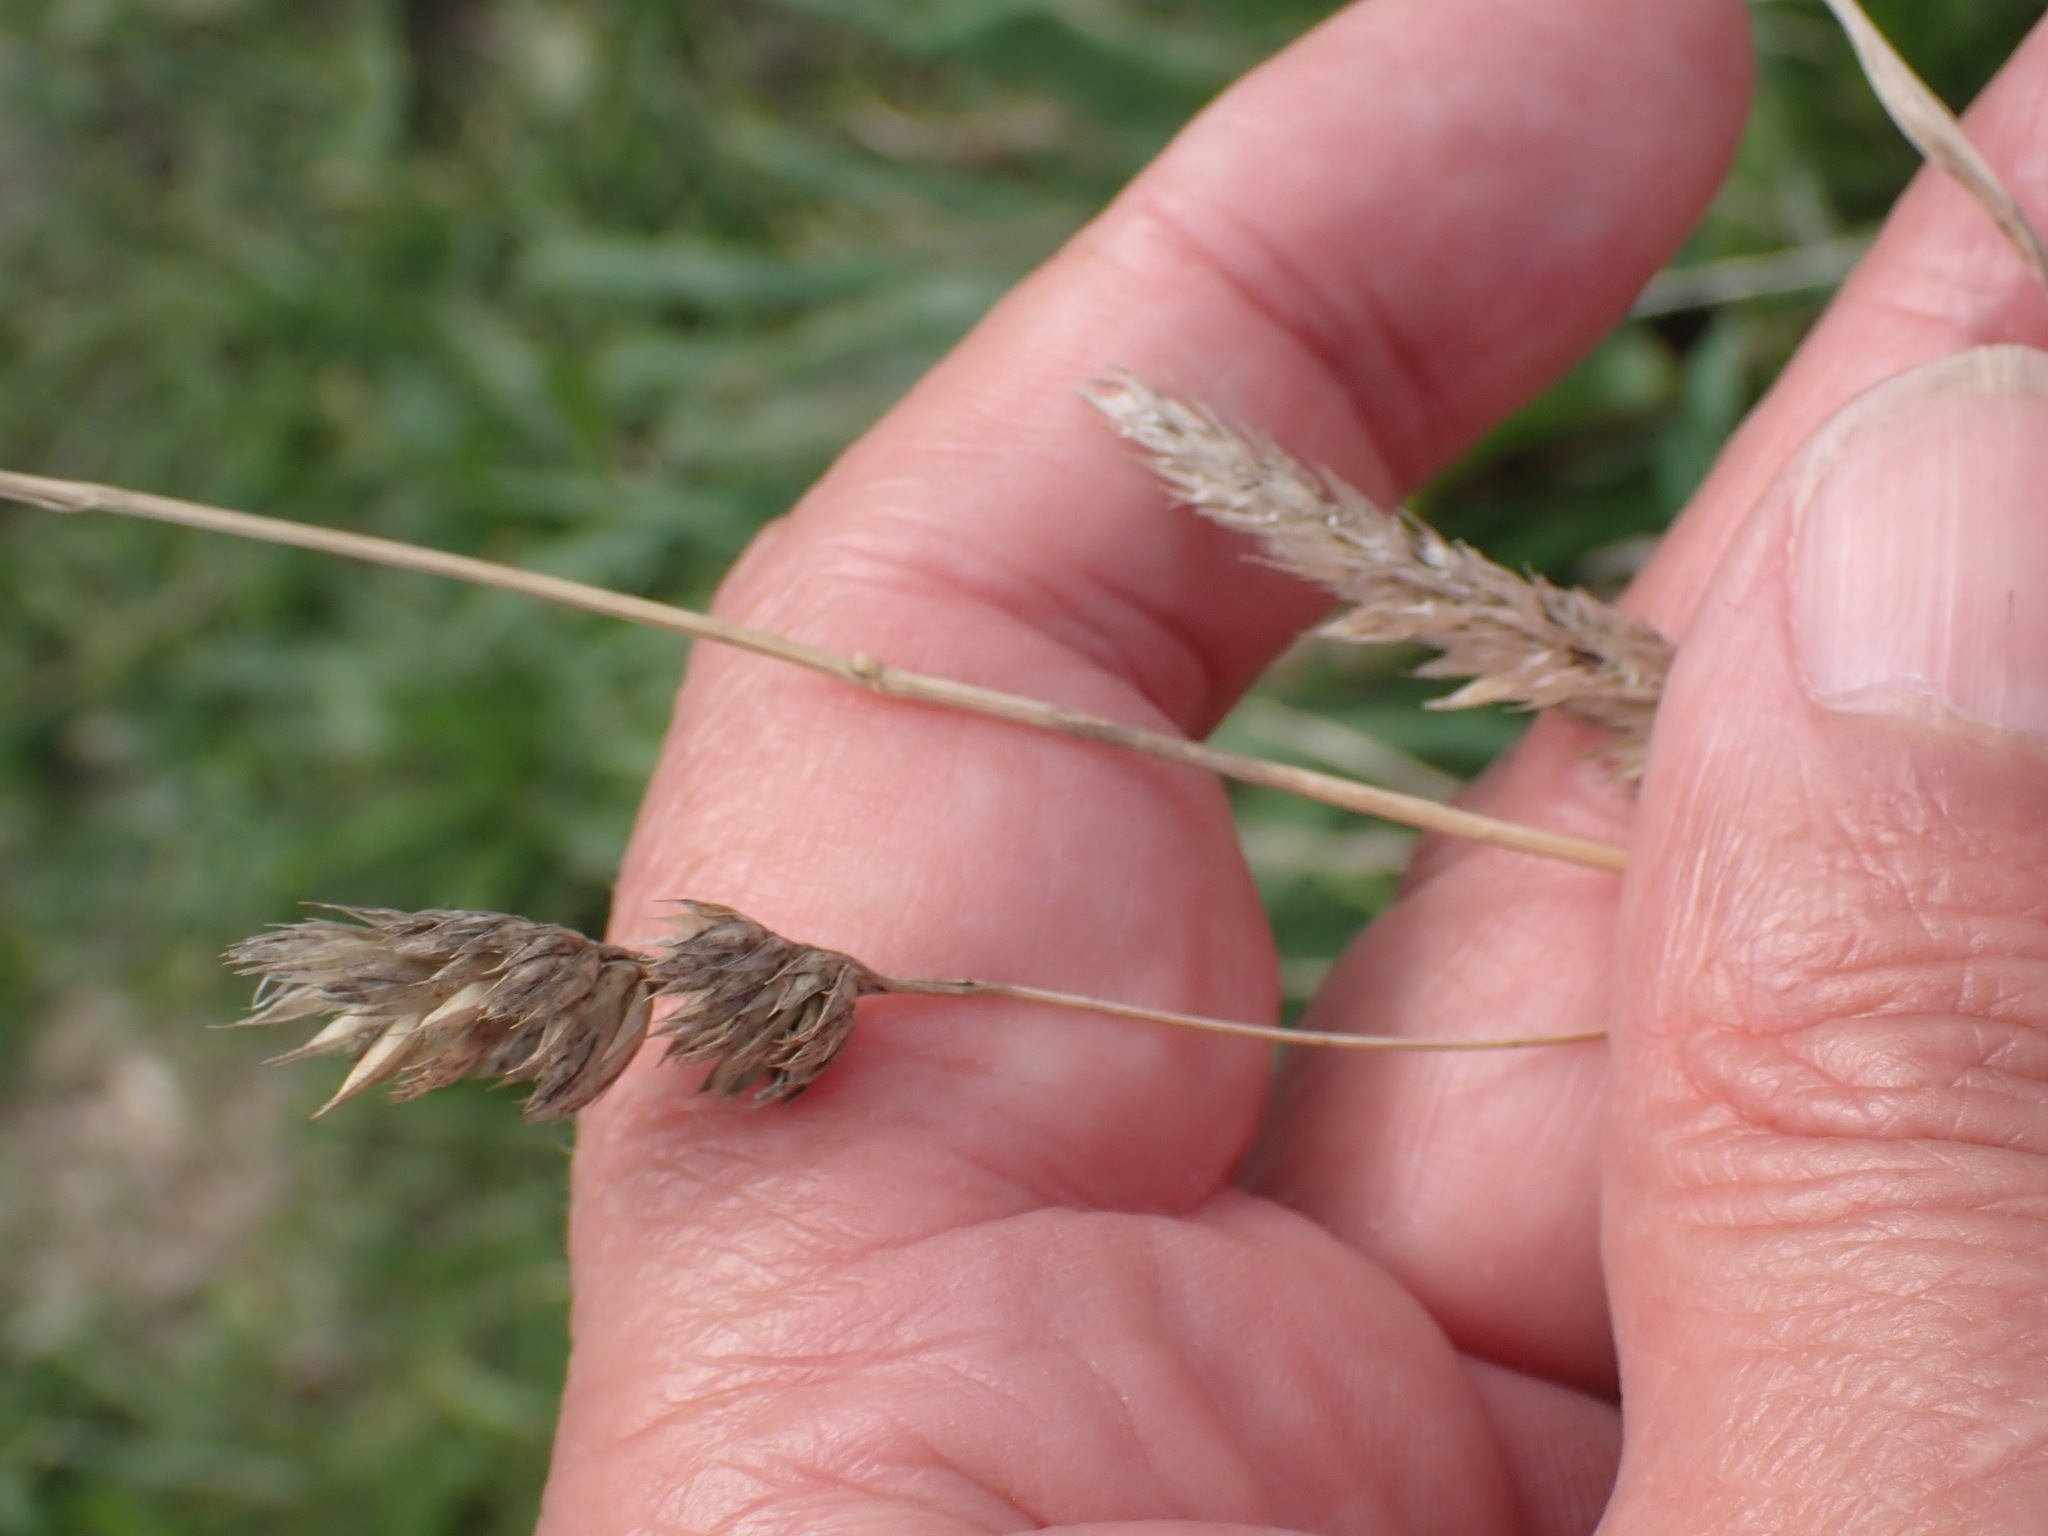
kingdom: Plantae
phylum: Tracheophyta
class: Liliopsida
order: Poales
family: Poaceae
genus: Dactylis
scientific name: Dactylis glomerata
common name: Orchardgrass
